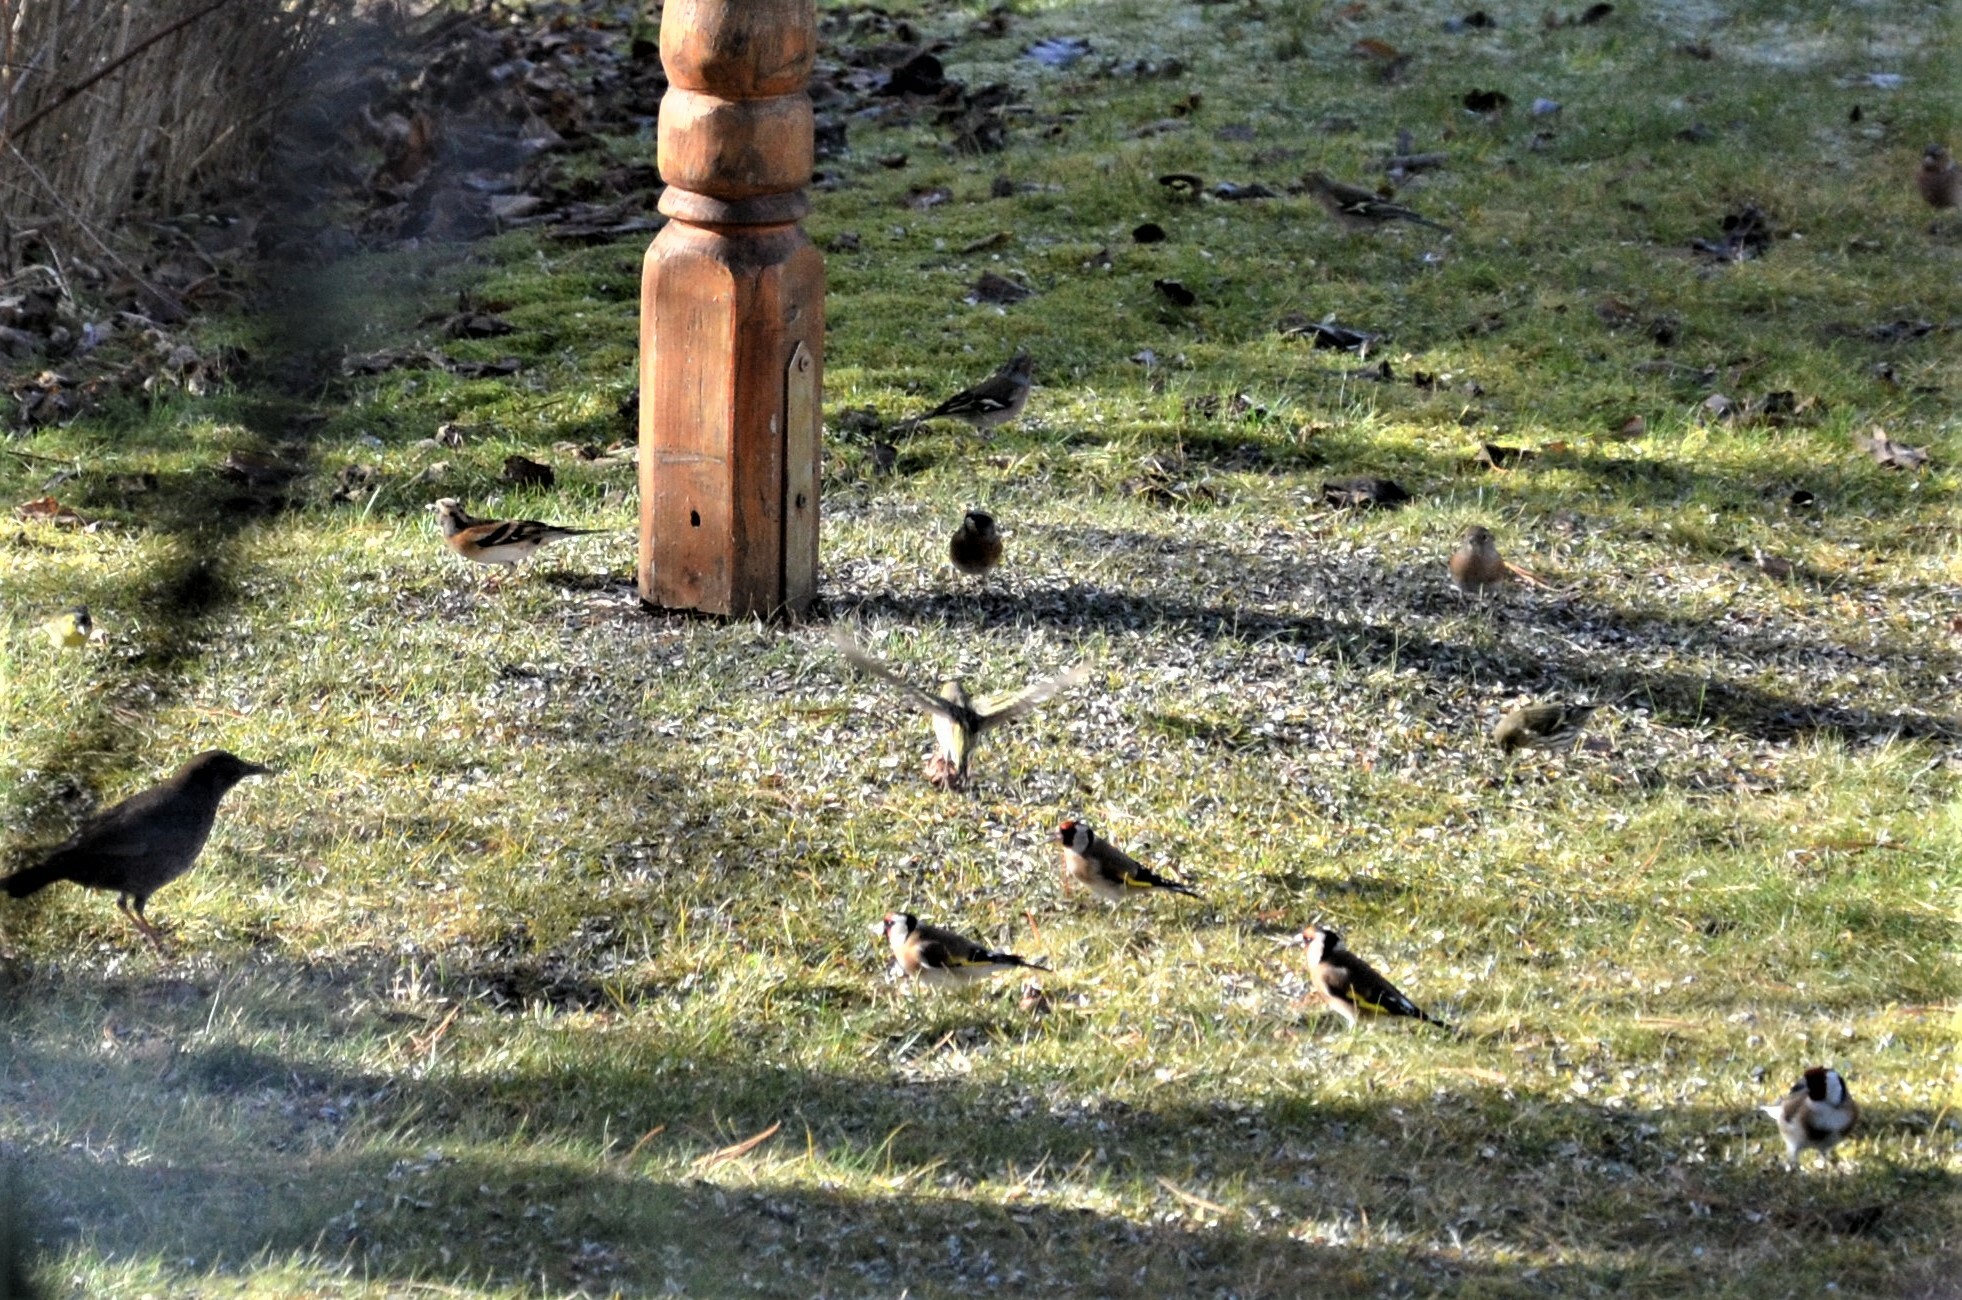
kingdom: Animalia
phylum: Chordata
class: Aves
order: Passeriformes
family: Fringillidae
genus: Carduelis
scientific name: Carduelis carduelis
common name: European goldfinch
